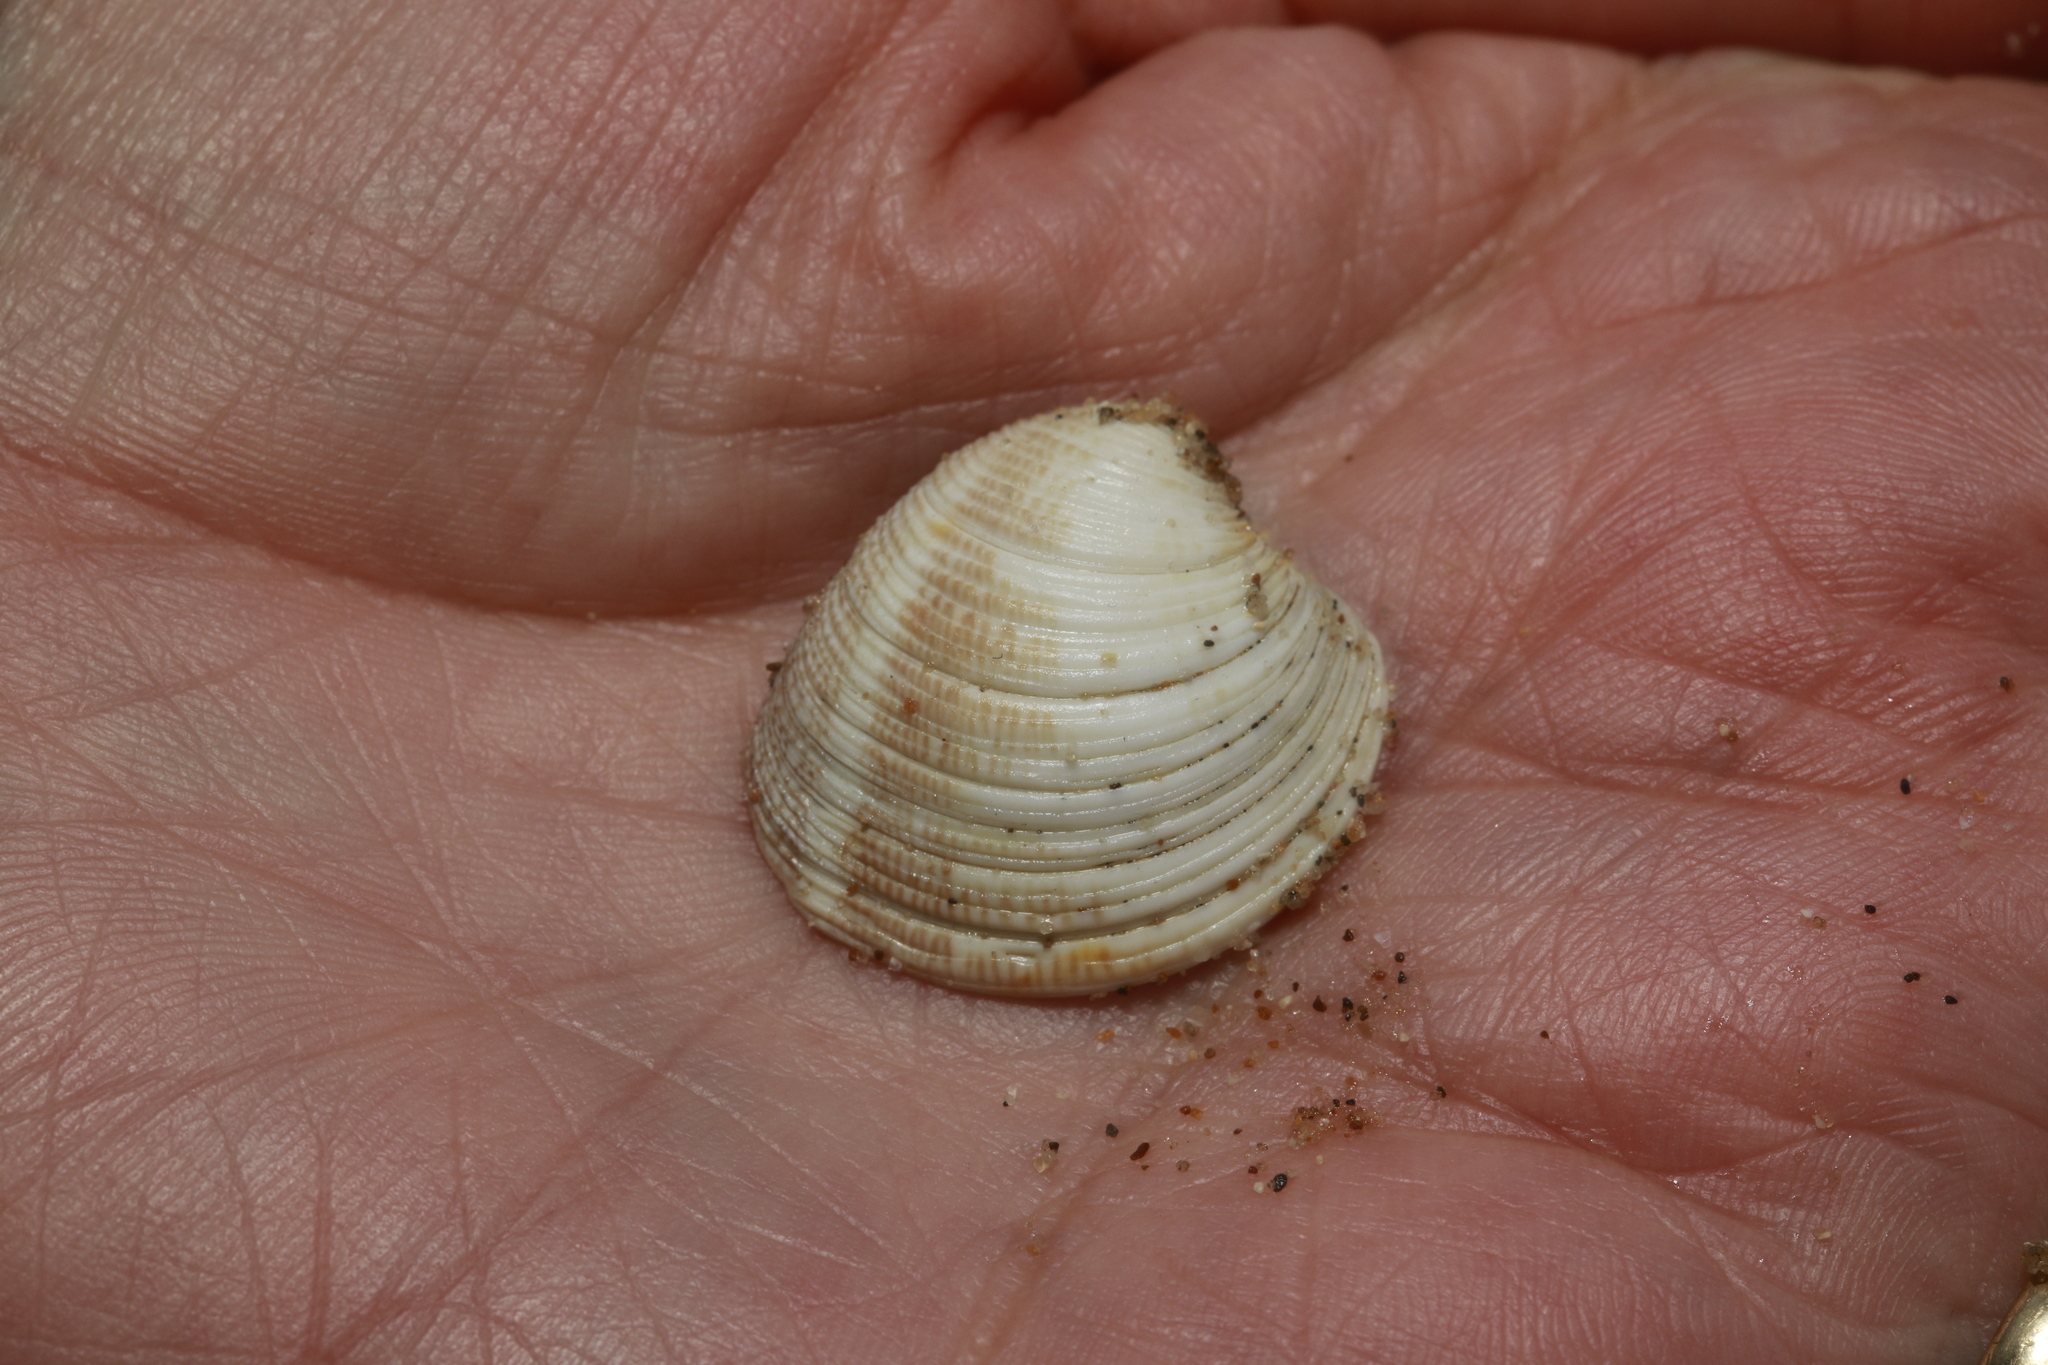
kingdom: Animalia
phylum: Mollusca
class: Bivalvia
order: Venerida
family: Veneridae
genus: Chamelea
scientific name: Chamelea striatula
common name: Striped venus
